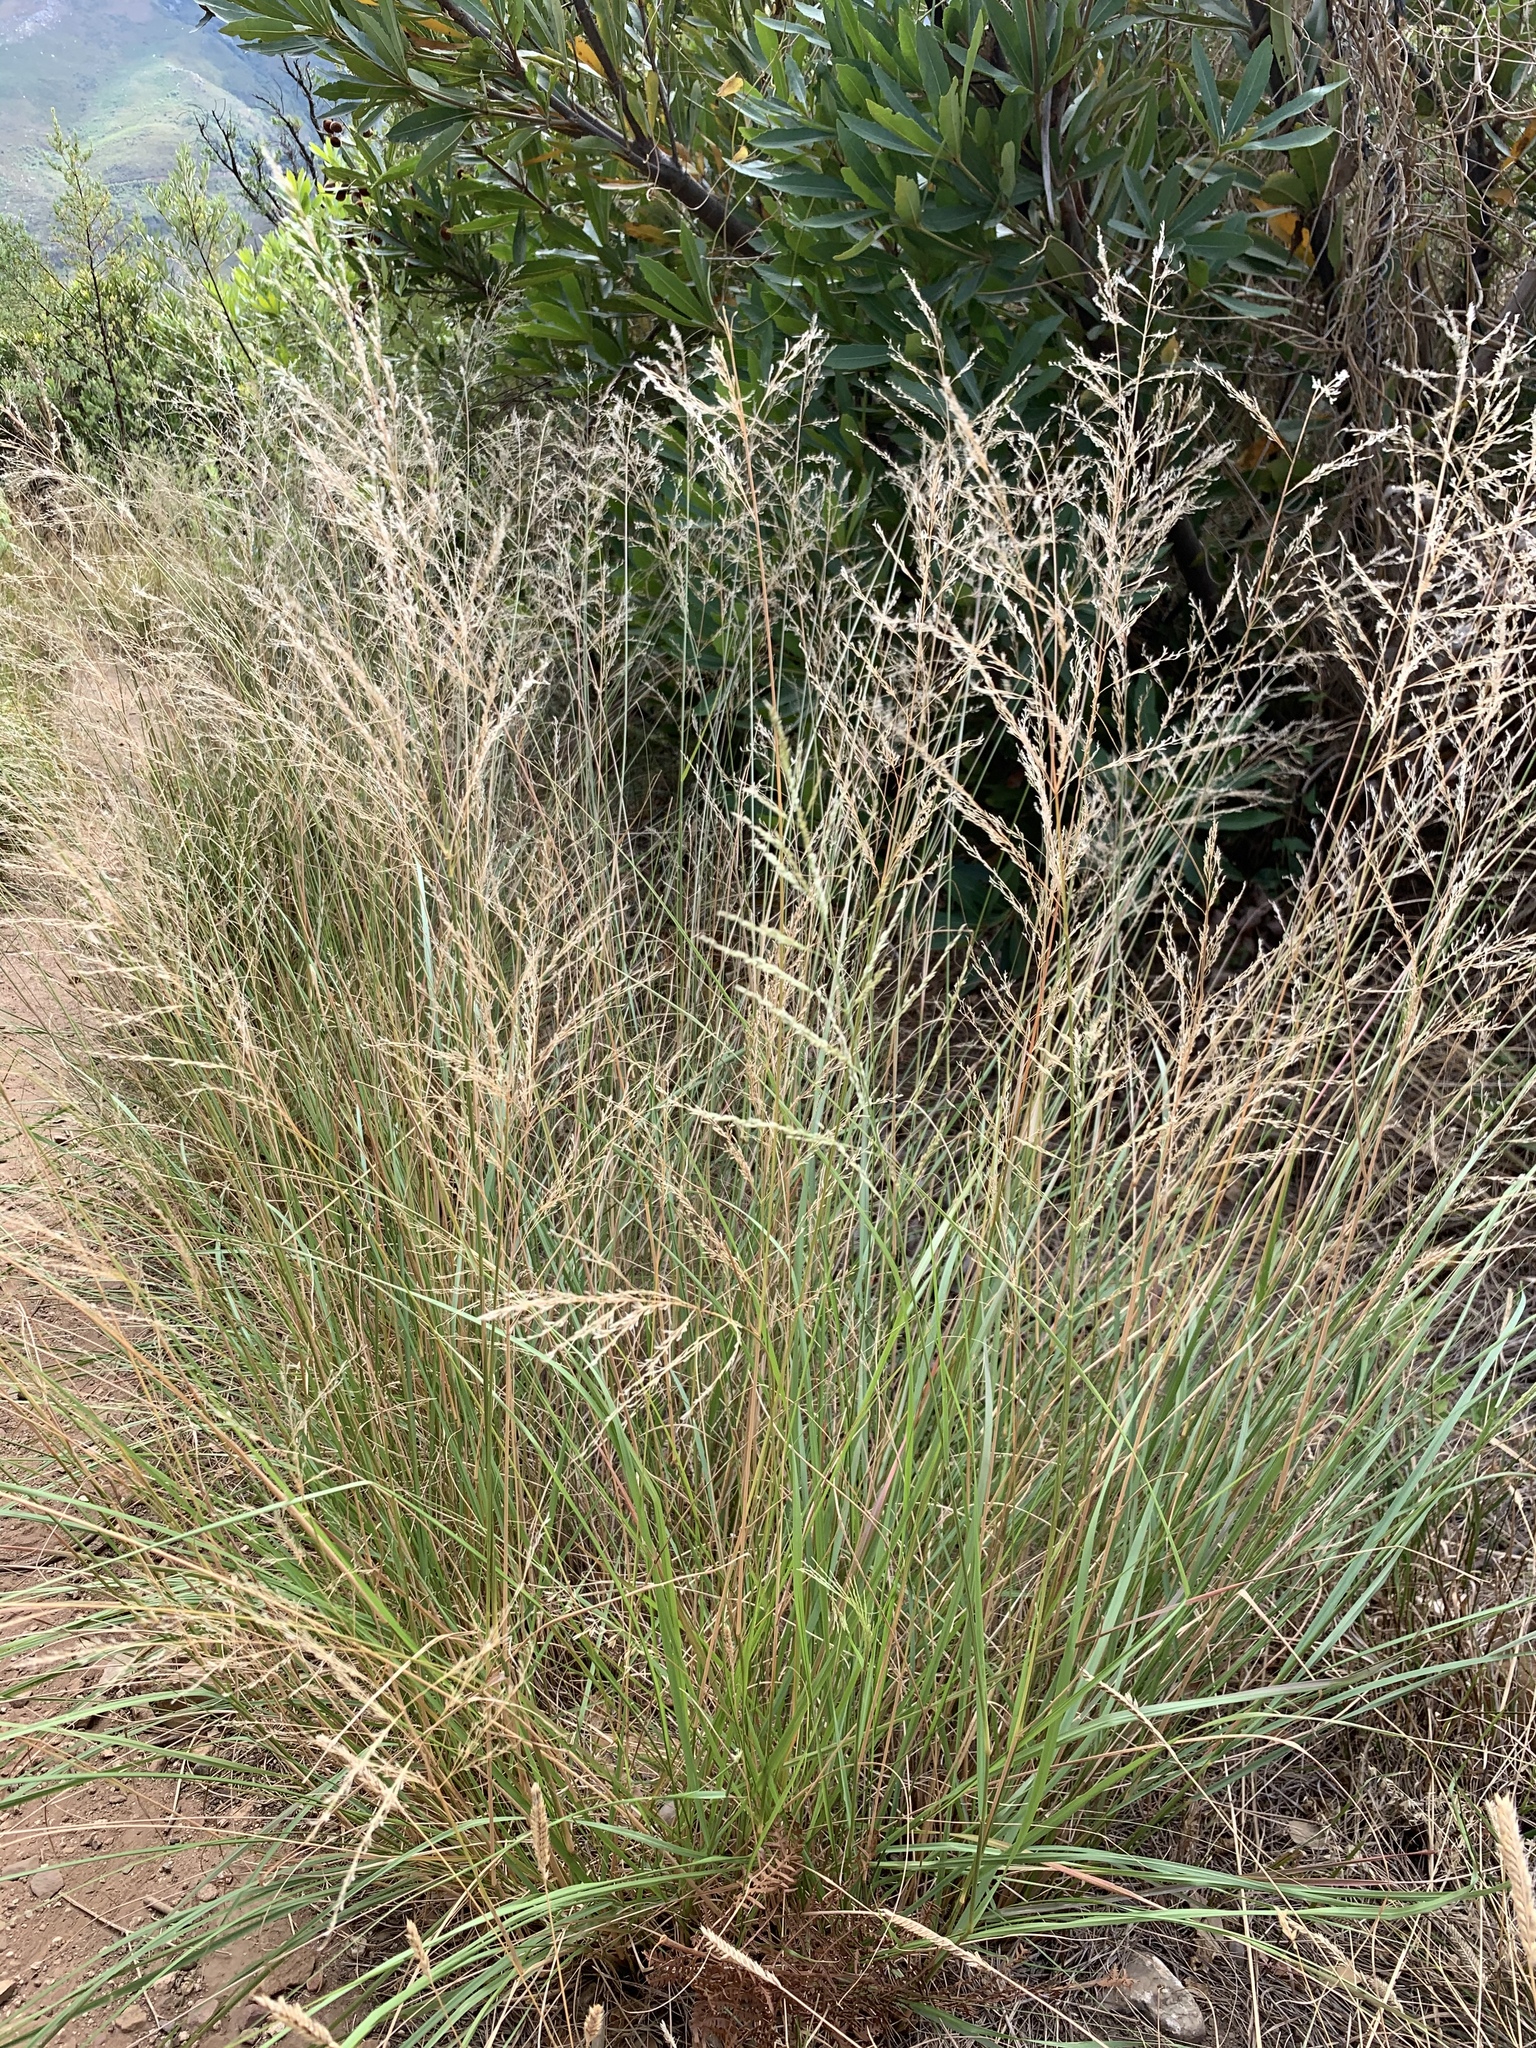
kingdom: Plantae
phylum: Tracheophyta
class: Liliopsida
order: Poales
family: Poaceae
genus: Eragrostis
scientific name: Eragrostis curvula
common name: African love-grass
